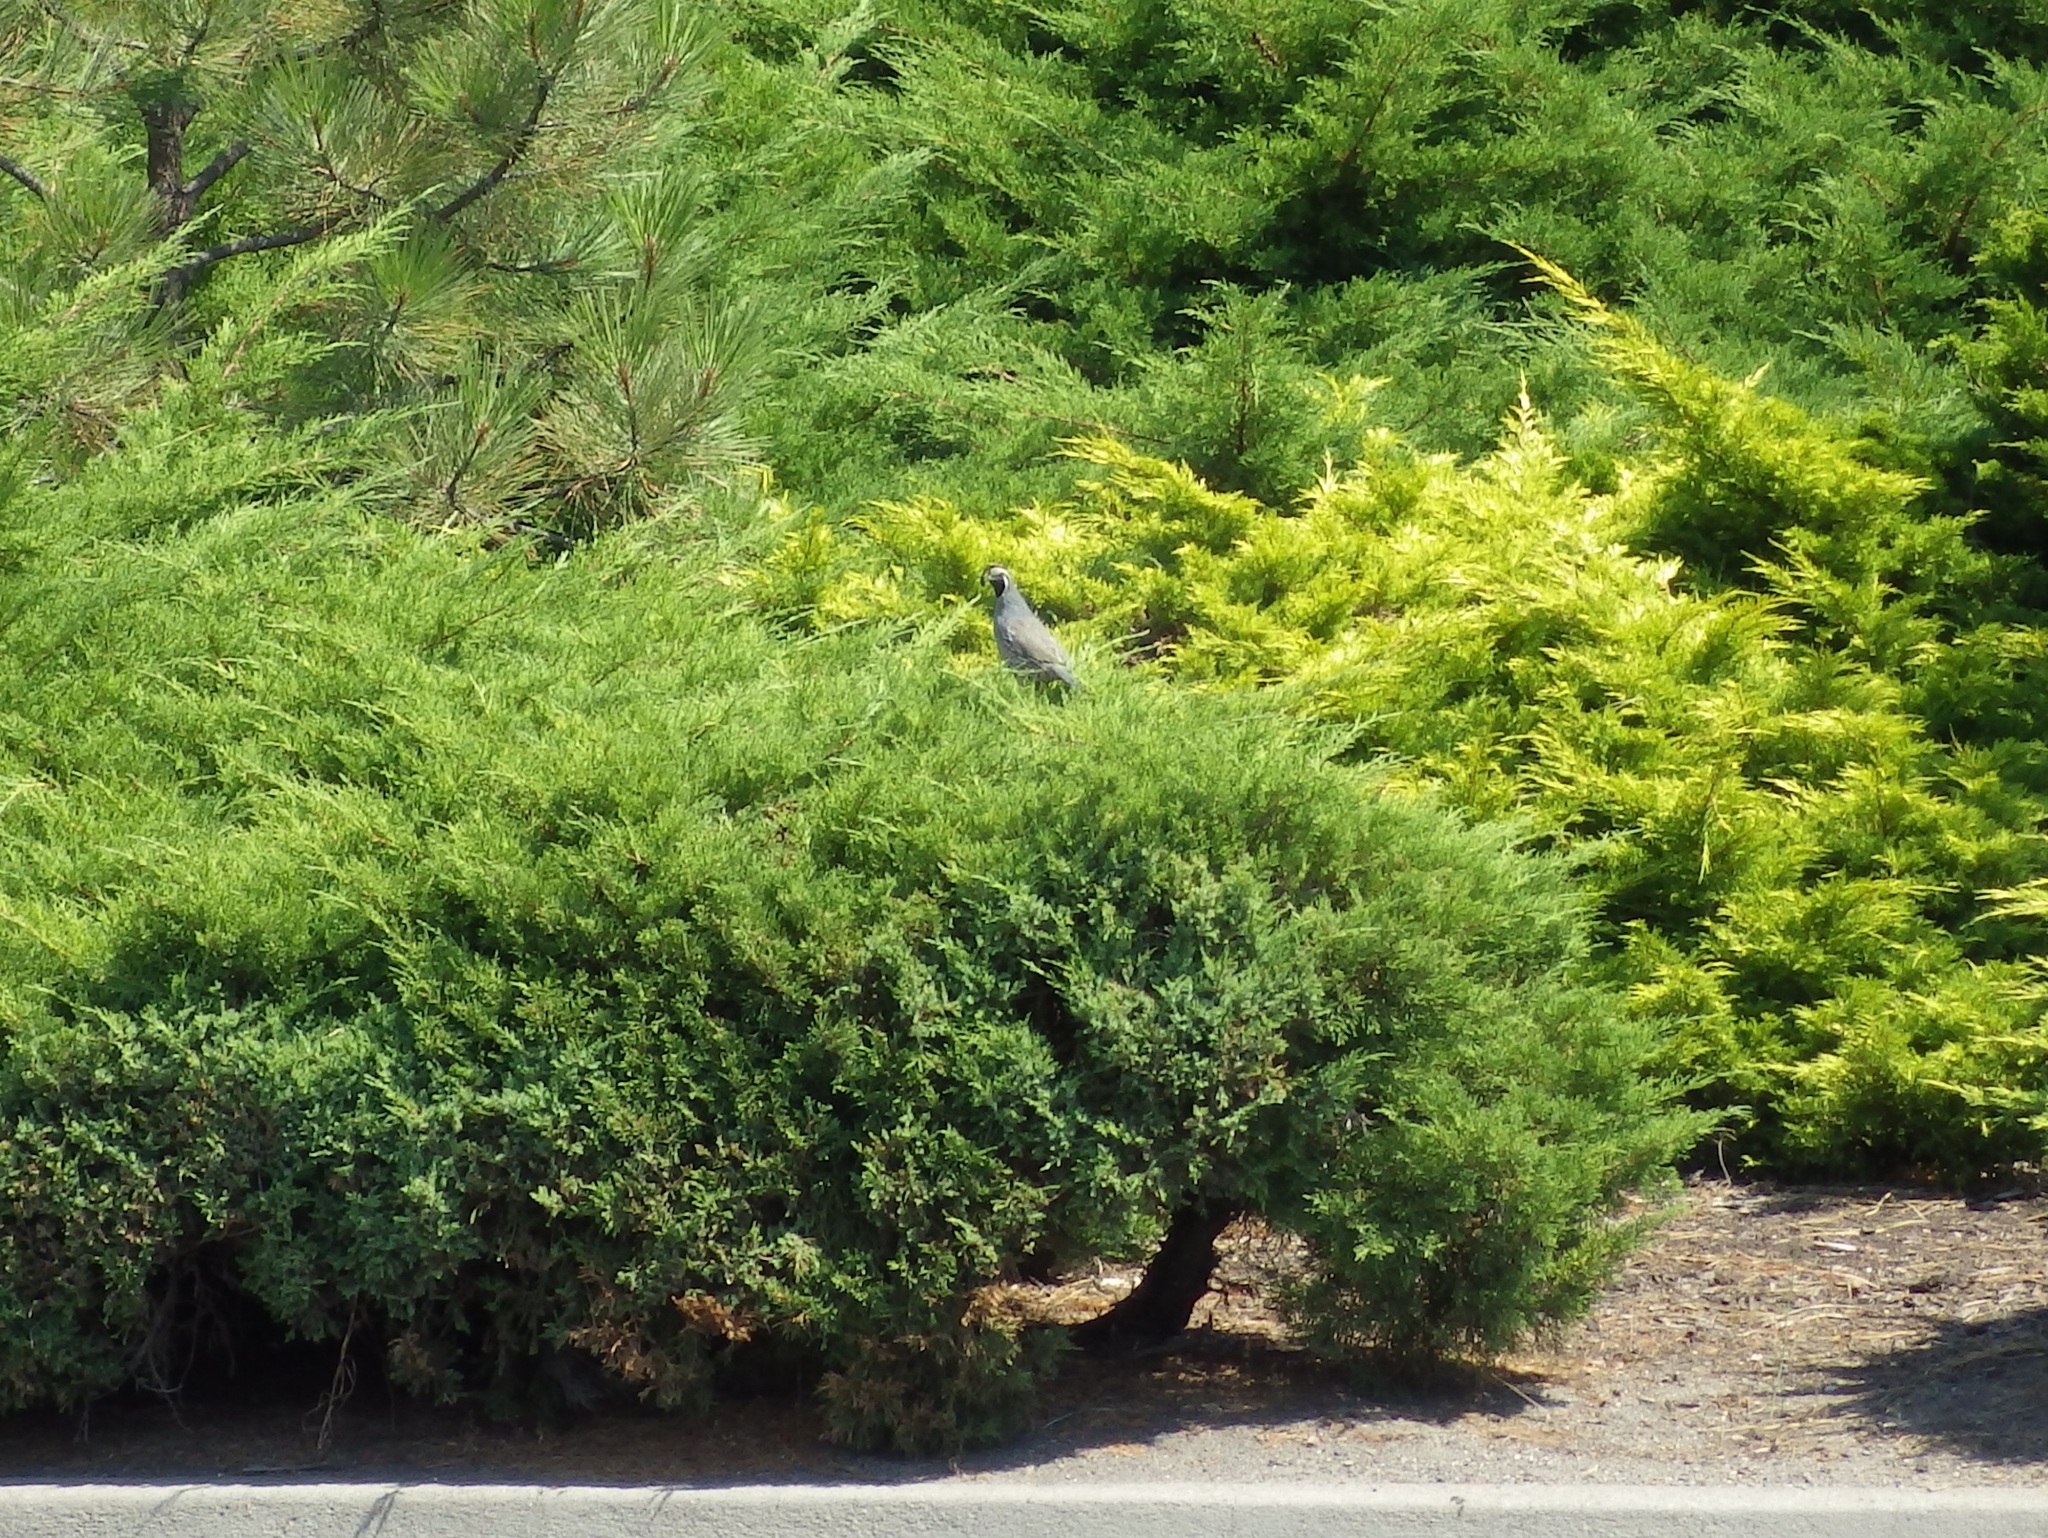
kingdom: Animalia
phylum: Chordata
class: Aves
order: Galliformes
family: Odontophoridae
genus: Callipepla
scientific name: Callipepla californica
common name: California quail
